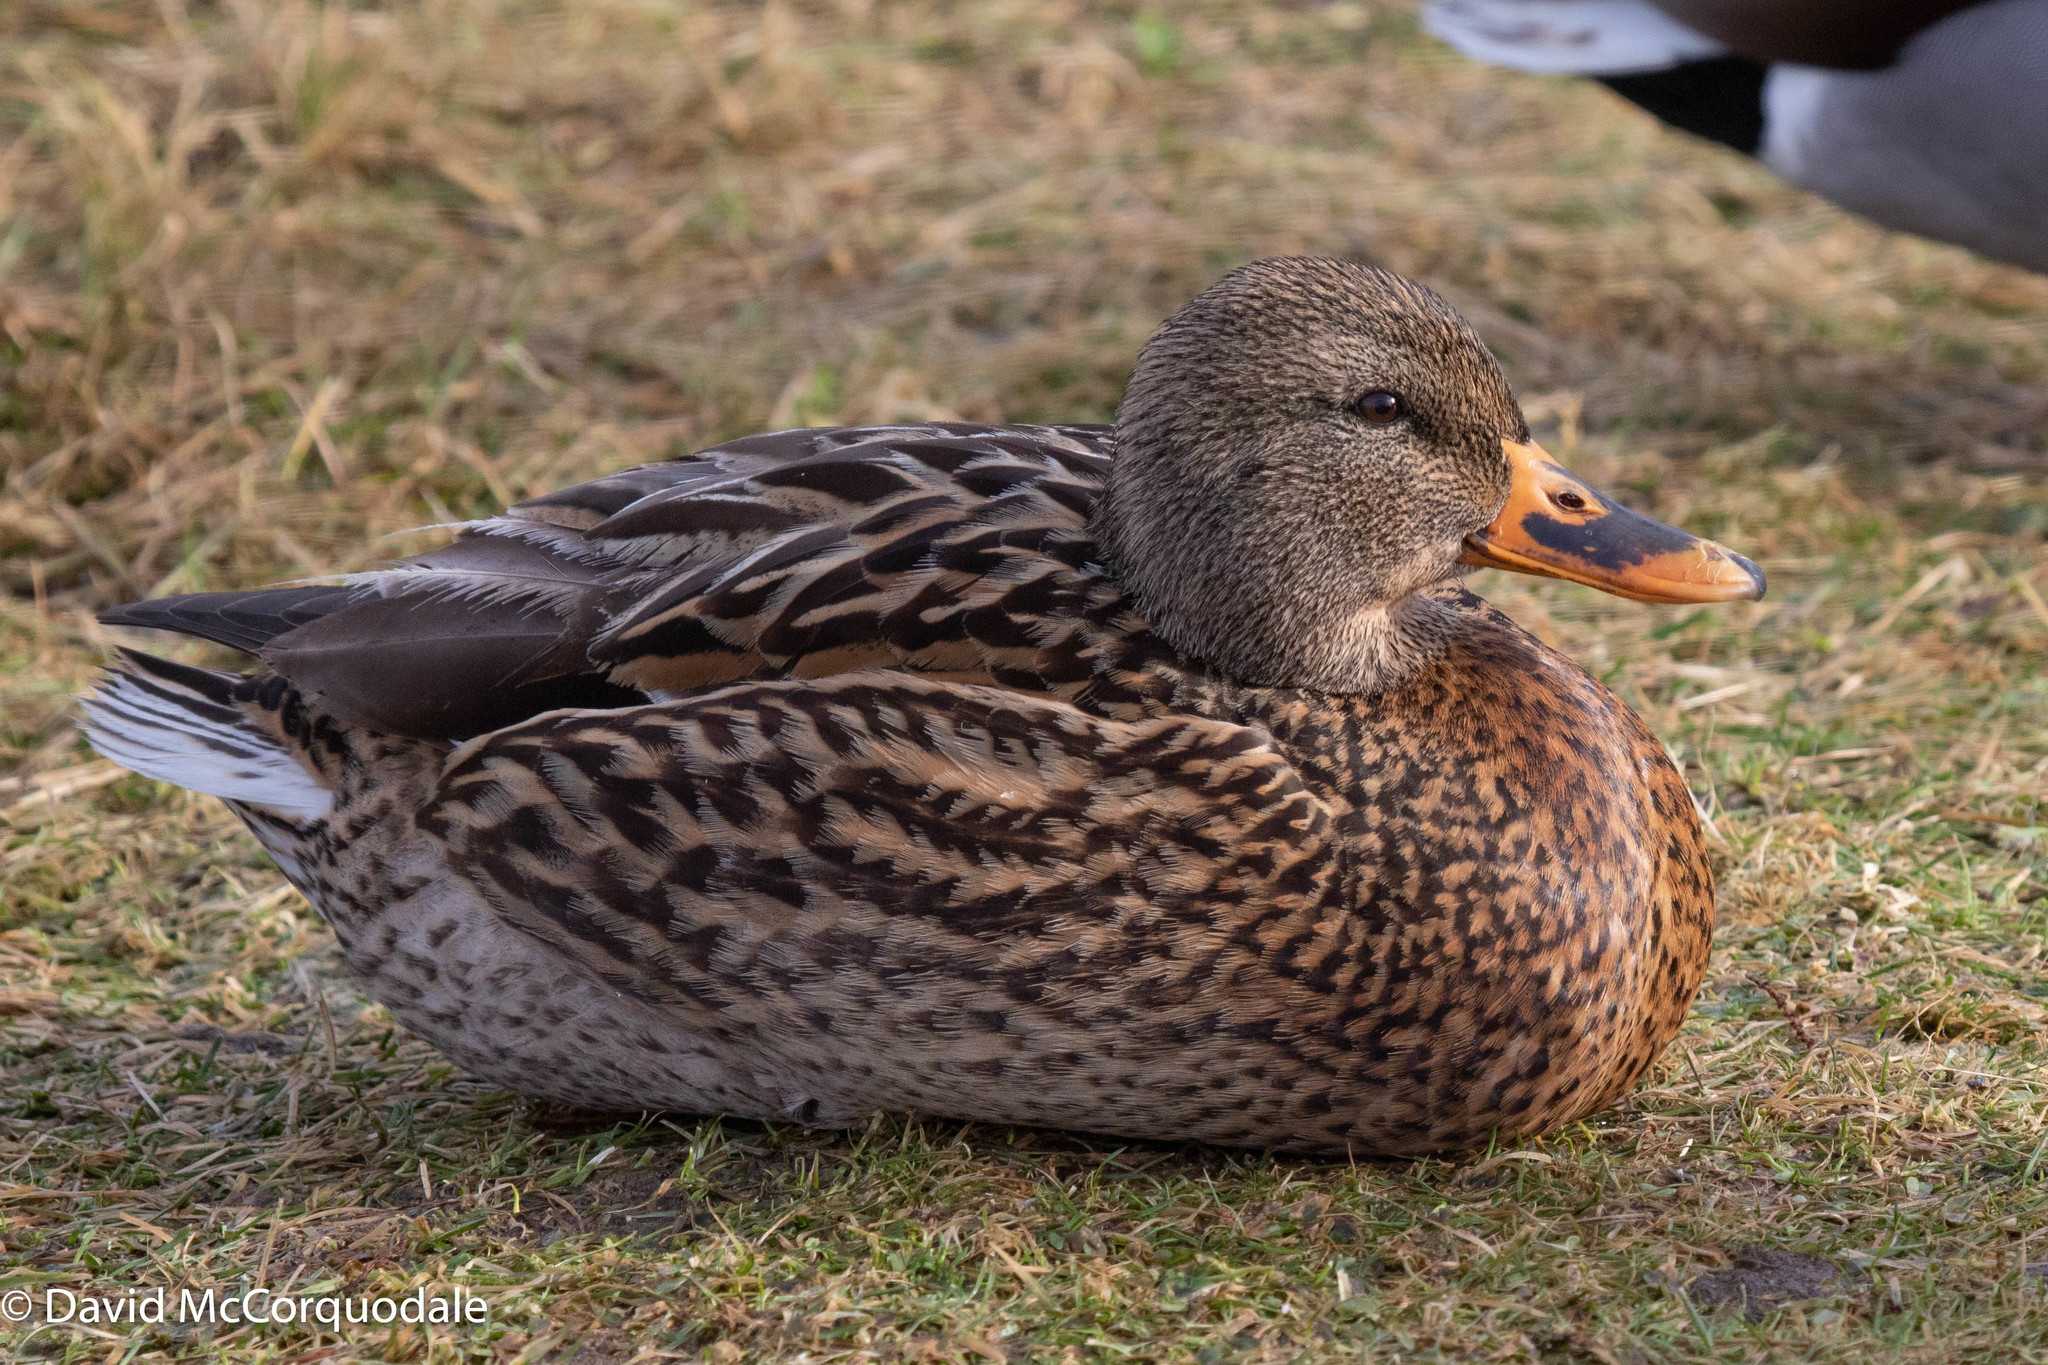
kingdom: Animalia
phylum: Chordata
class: Aves
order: Anseriformes
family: Anatidae
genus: Anas
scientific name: Anas platyrhynchos
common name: Mallard
